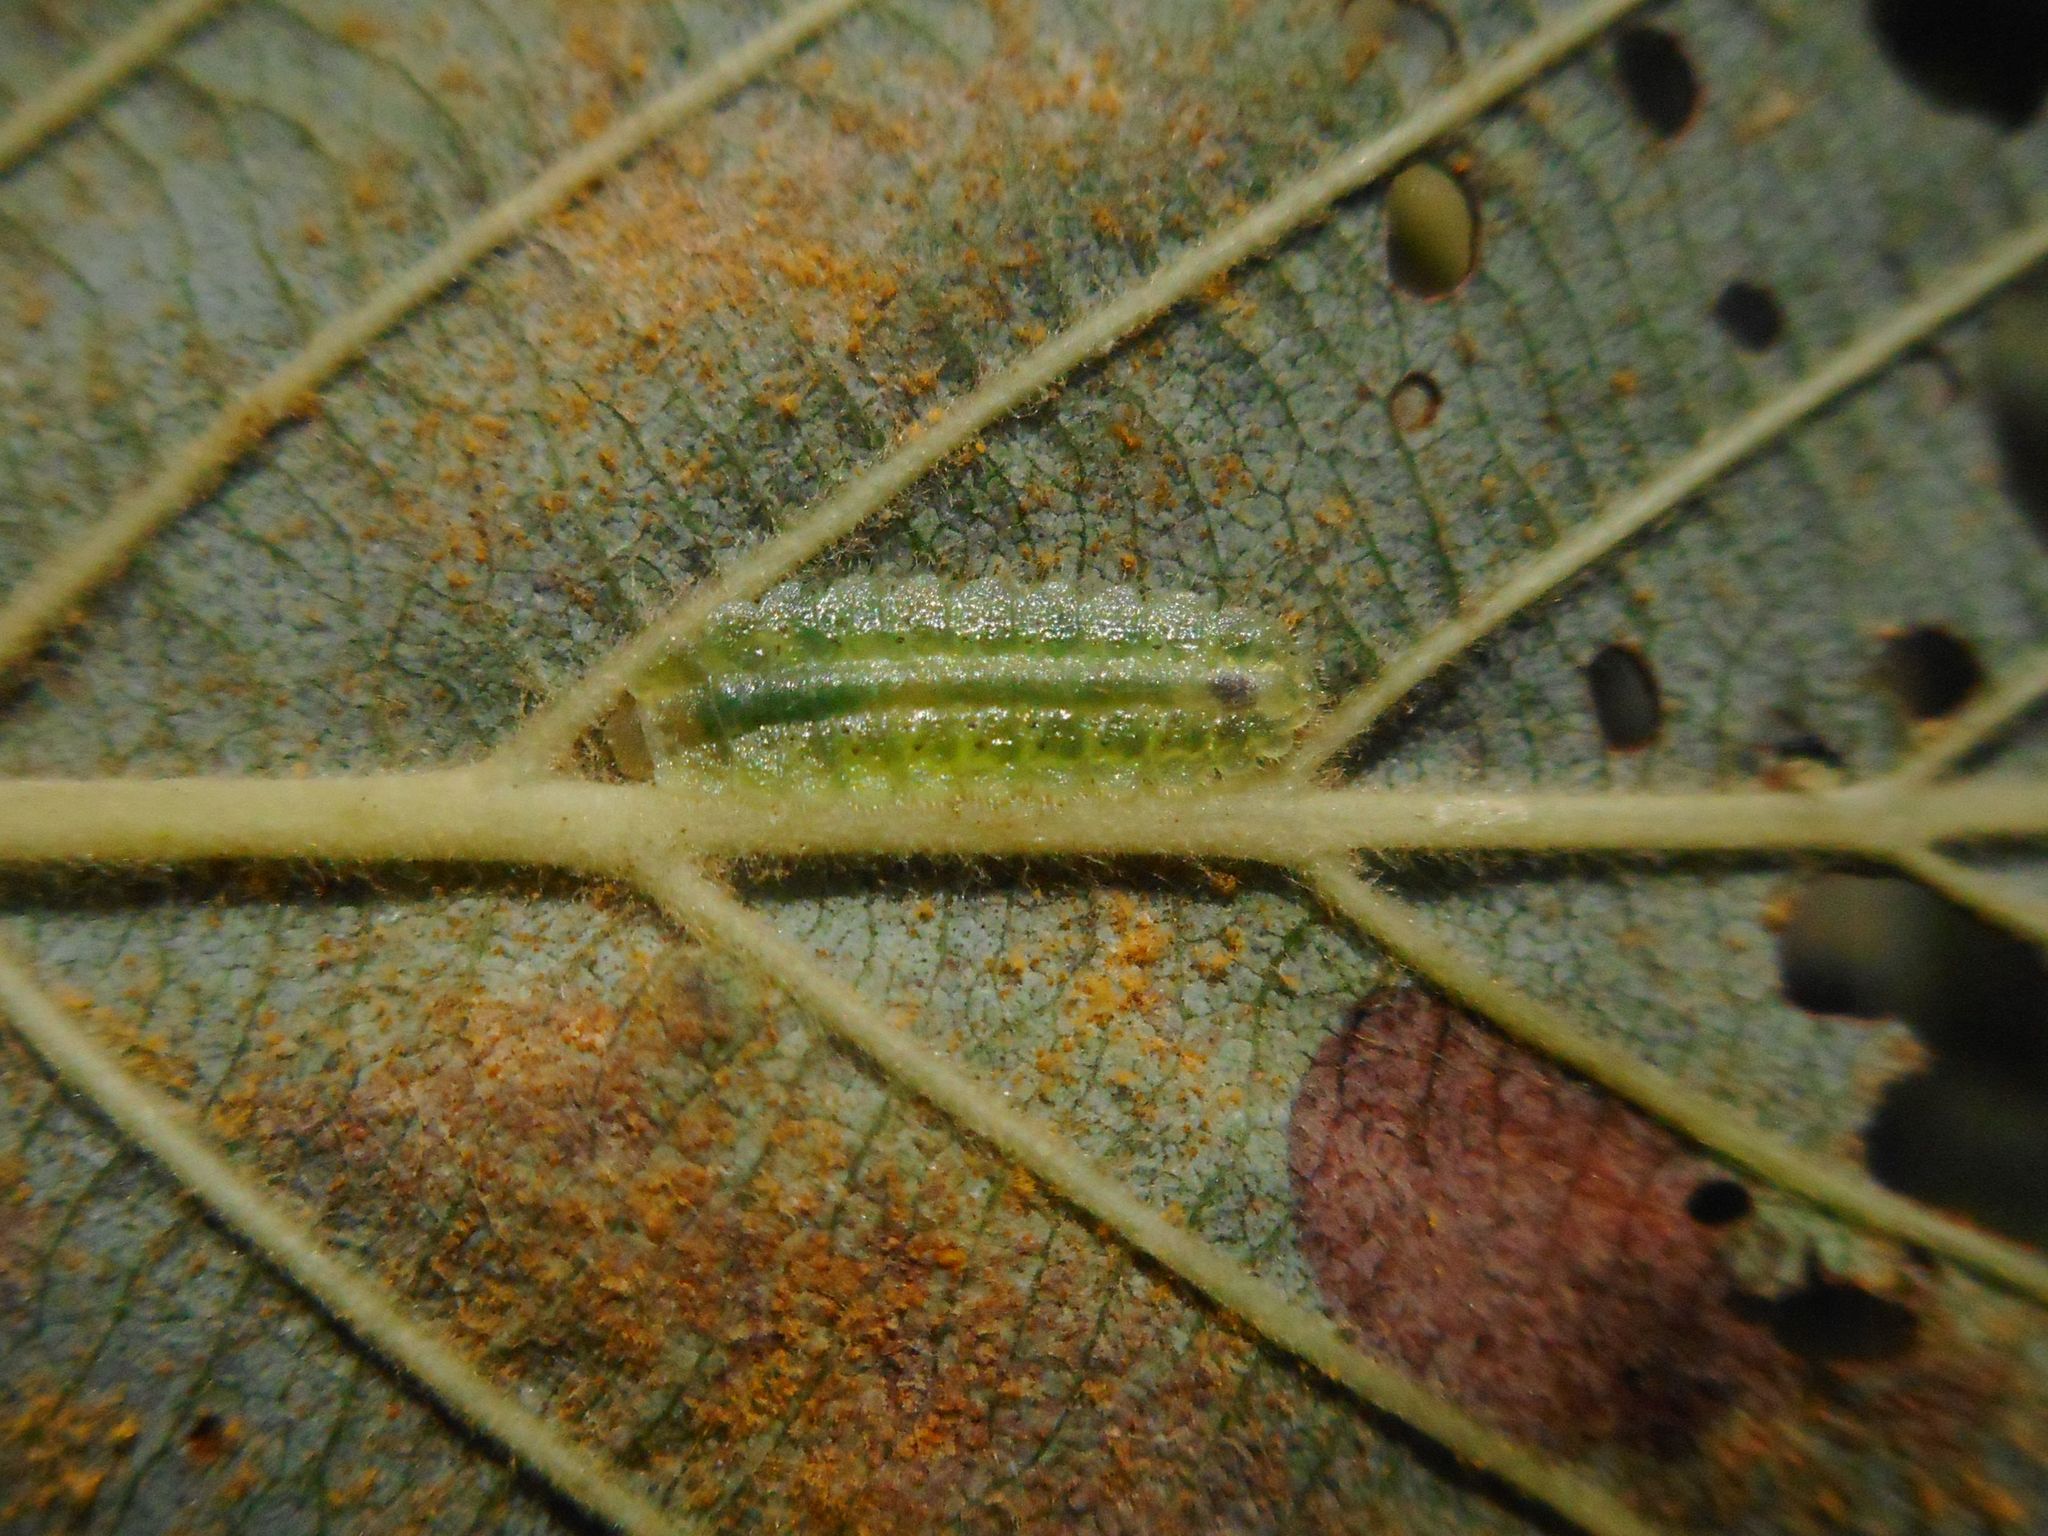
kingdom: Animalia
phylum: Arthropoda
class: Insecta
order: Hymenoptera
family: Tenthredinidae
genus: Platycampus
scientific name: Platycampus luridiventris
